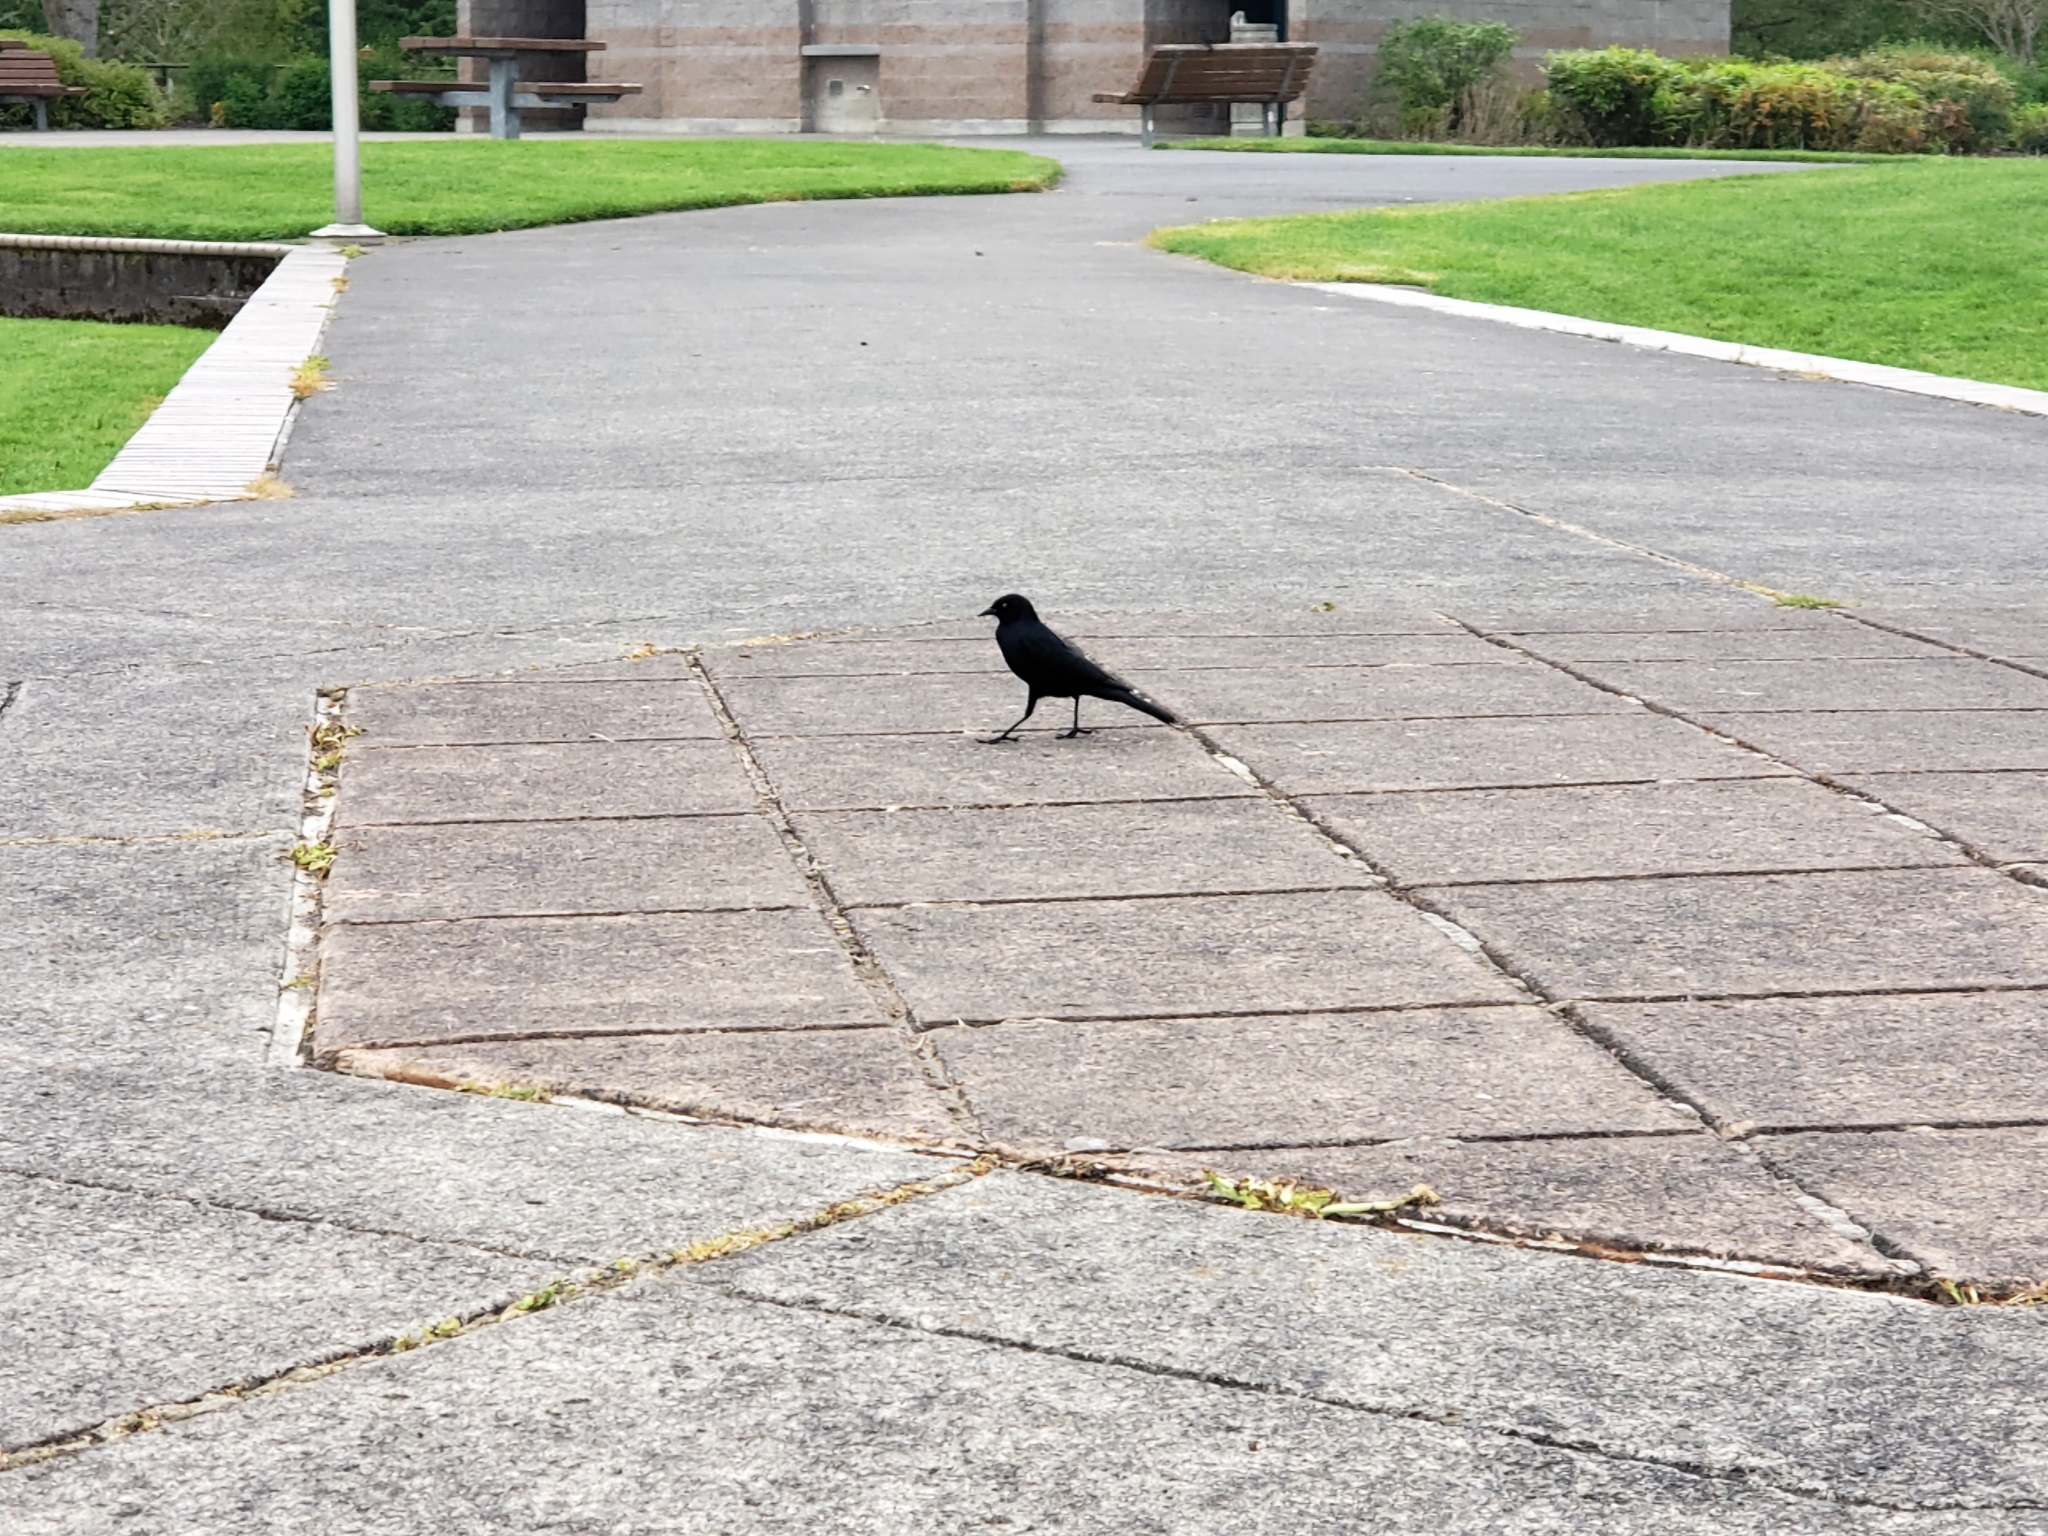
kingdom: Animalia
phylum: Chordata
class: Aves
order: Passeriformes
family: Icteridae
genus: Euphagus
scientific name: Euphagus cyanocephalus
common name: Brewer's blackbird
